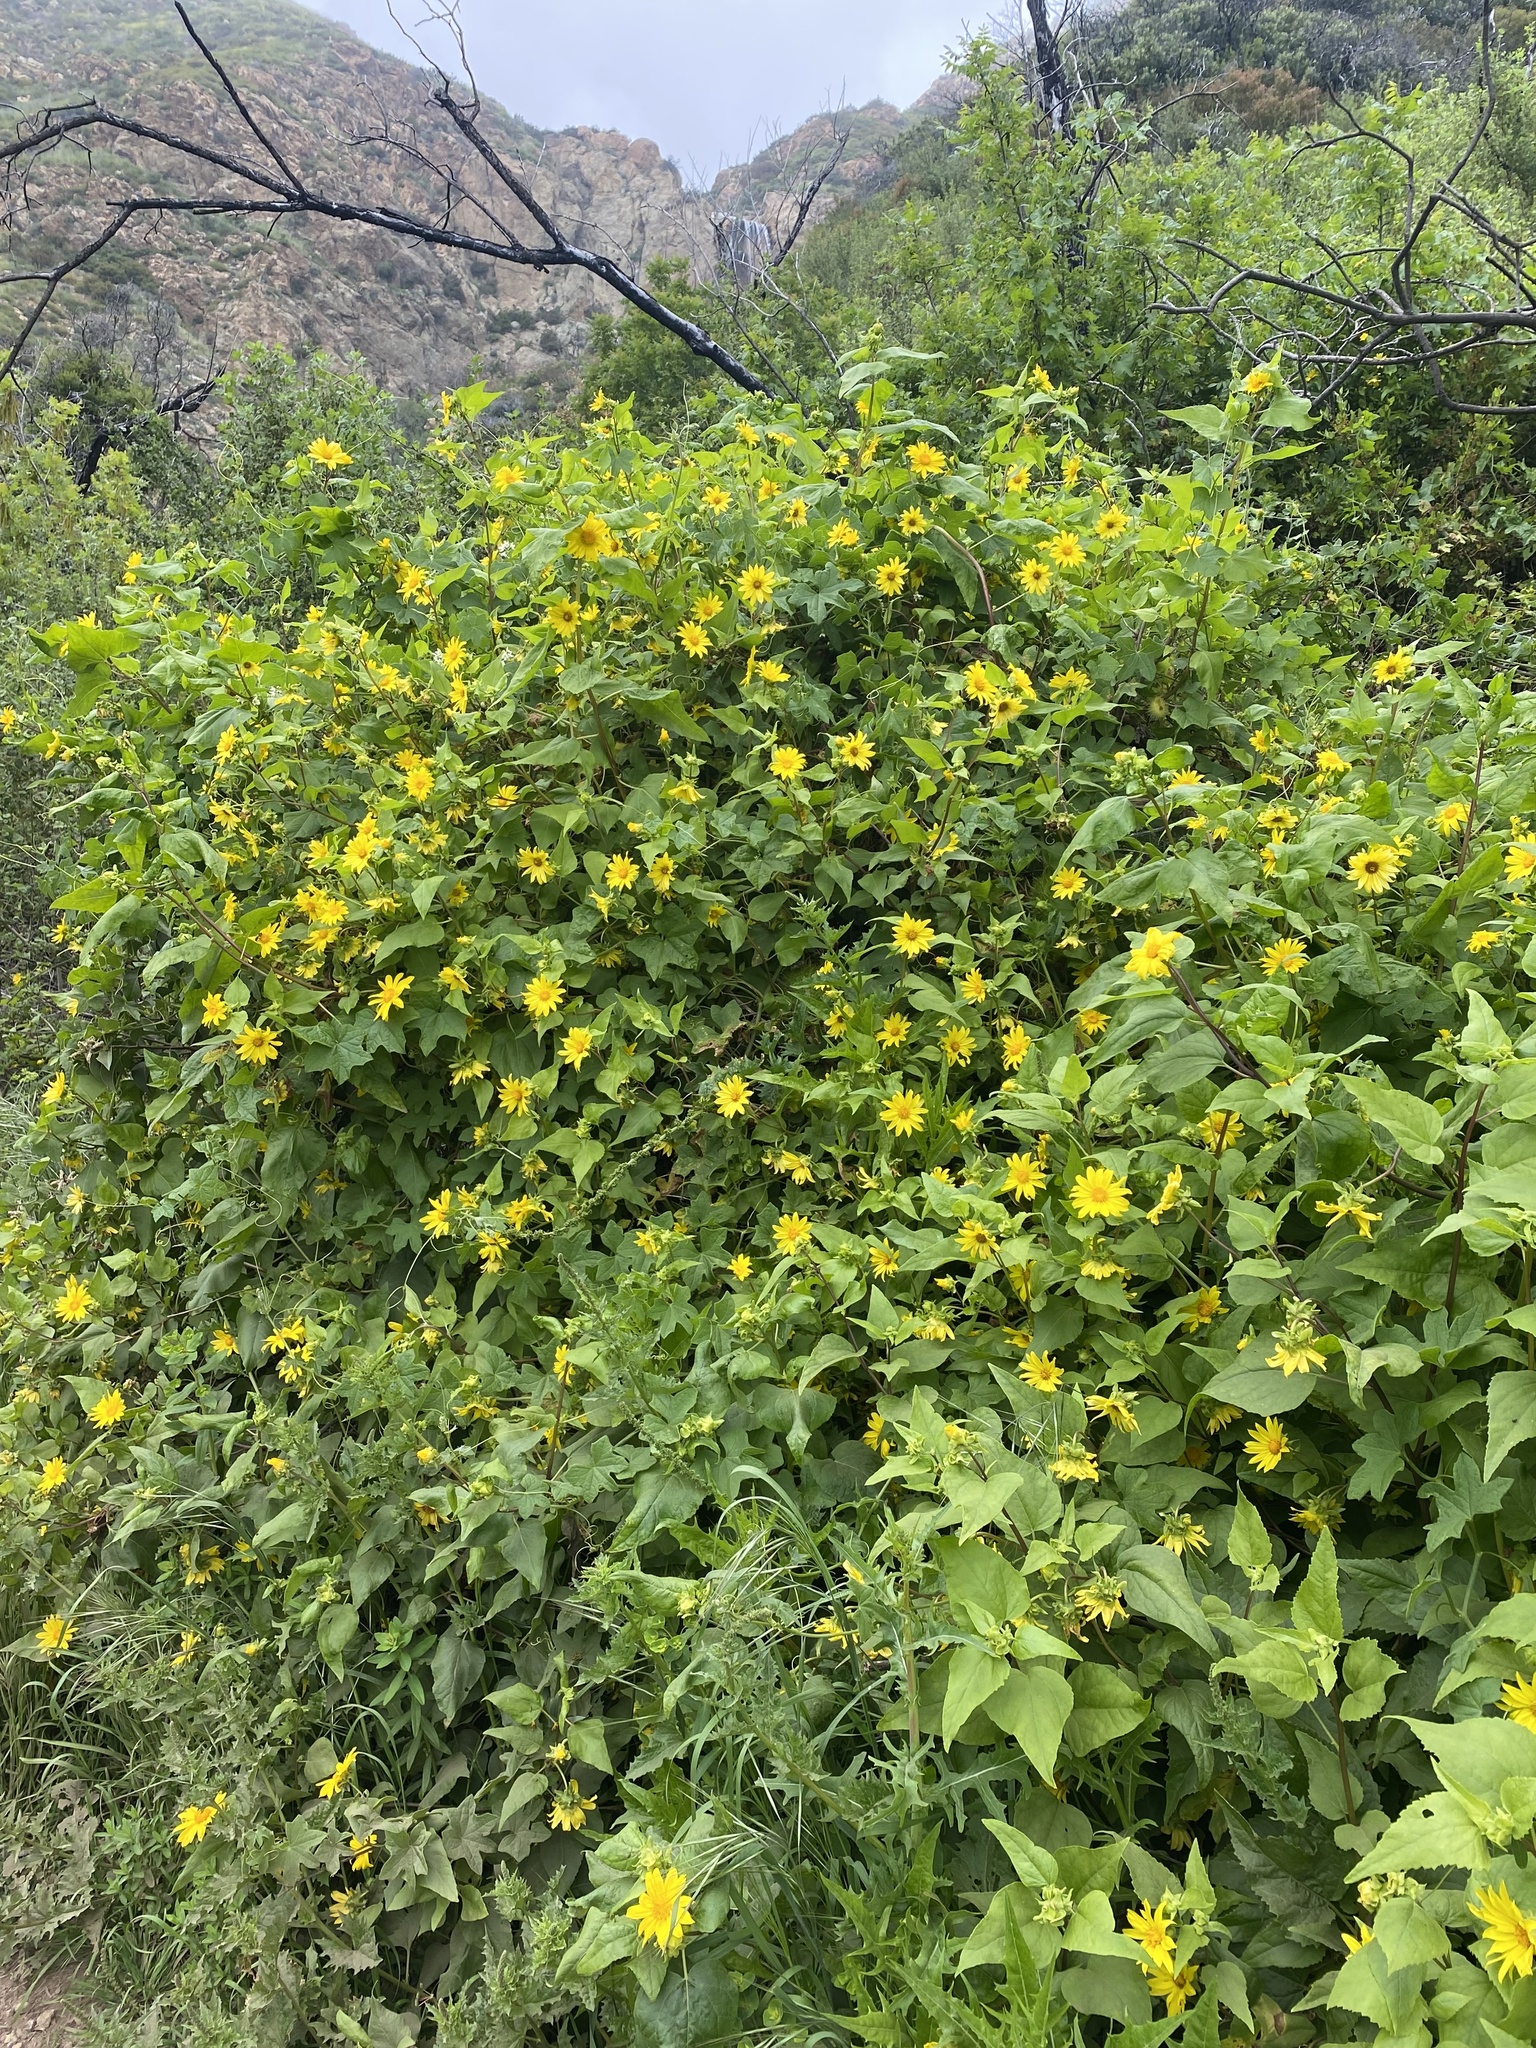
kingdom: Plantae
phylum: Tracheophyta
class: Magnoliopsida
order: Asterales
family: Asteraceae
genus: Venegasia
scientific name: Venegasia carpesioides
